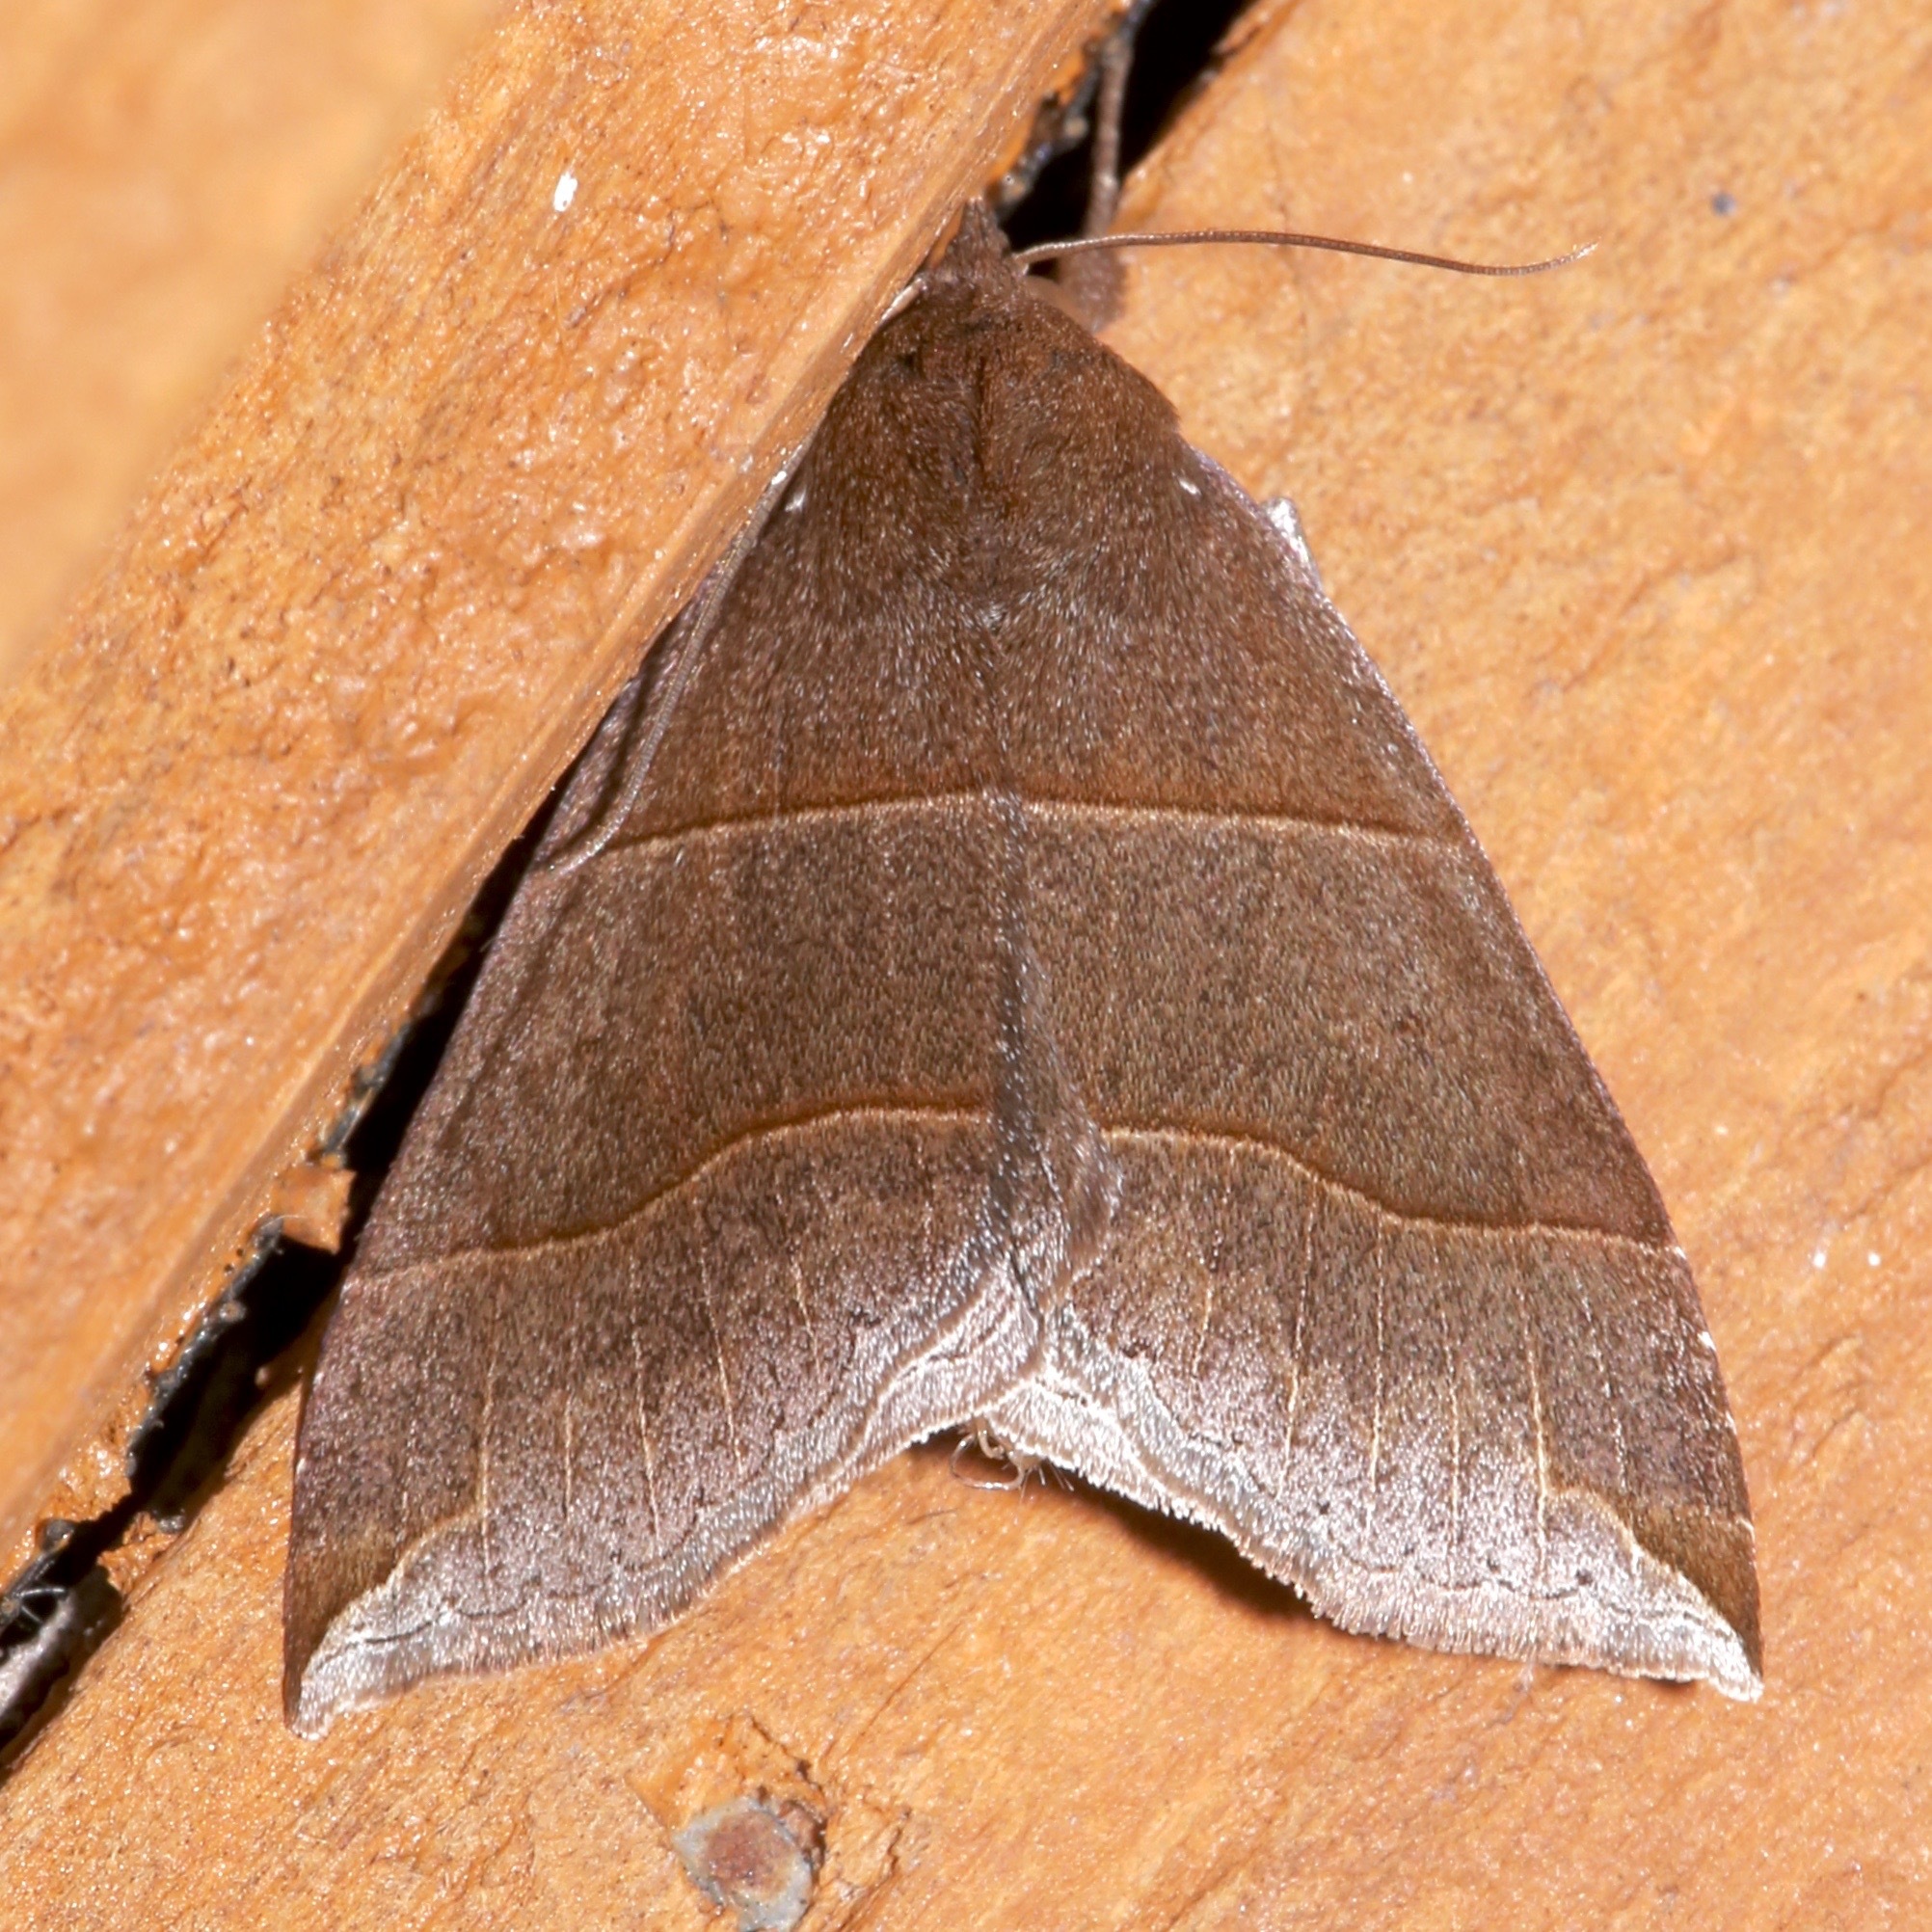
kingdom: Animalia
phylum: Arthropoda
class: Insecta
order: Lepidoptera
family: Erebidae
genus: Parallelia
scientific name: Parallelia bistriaris
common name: Maple looper moth
